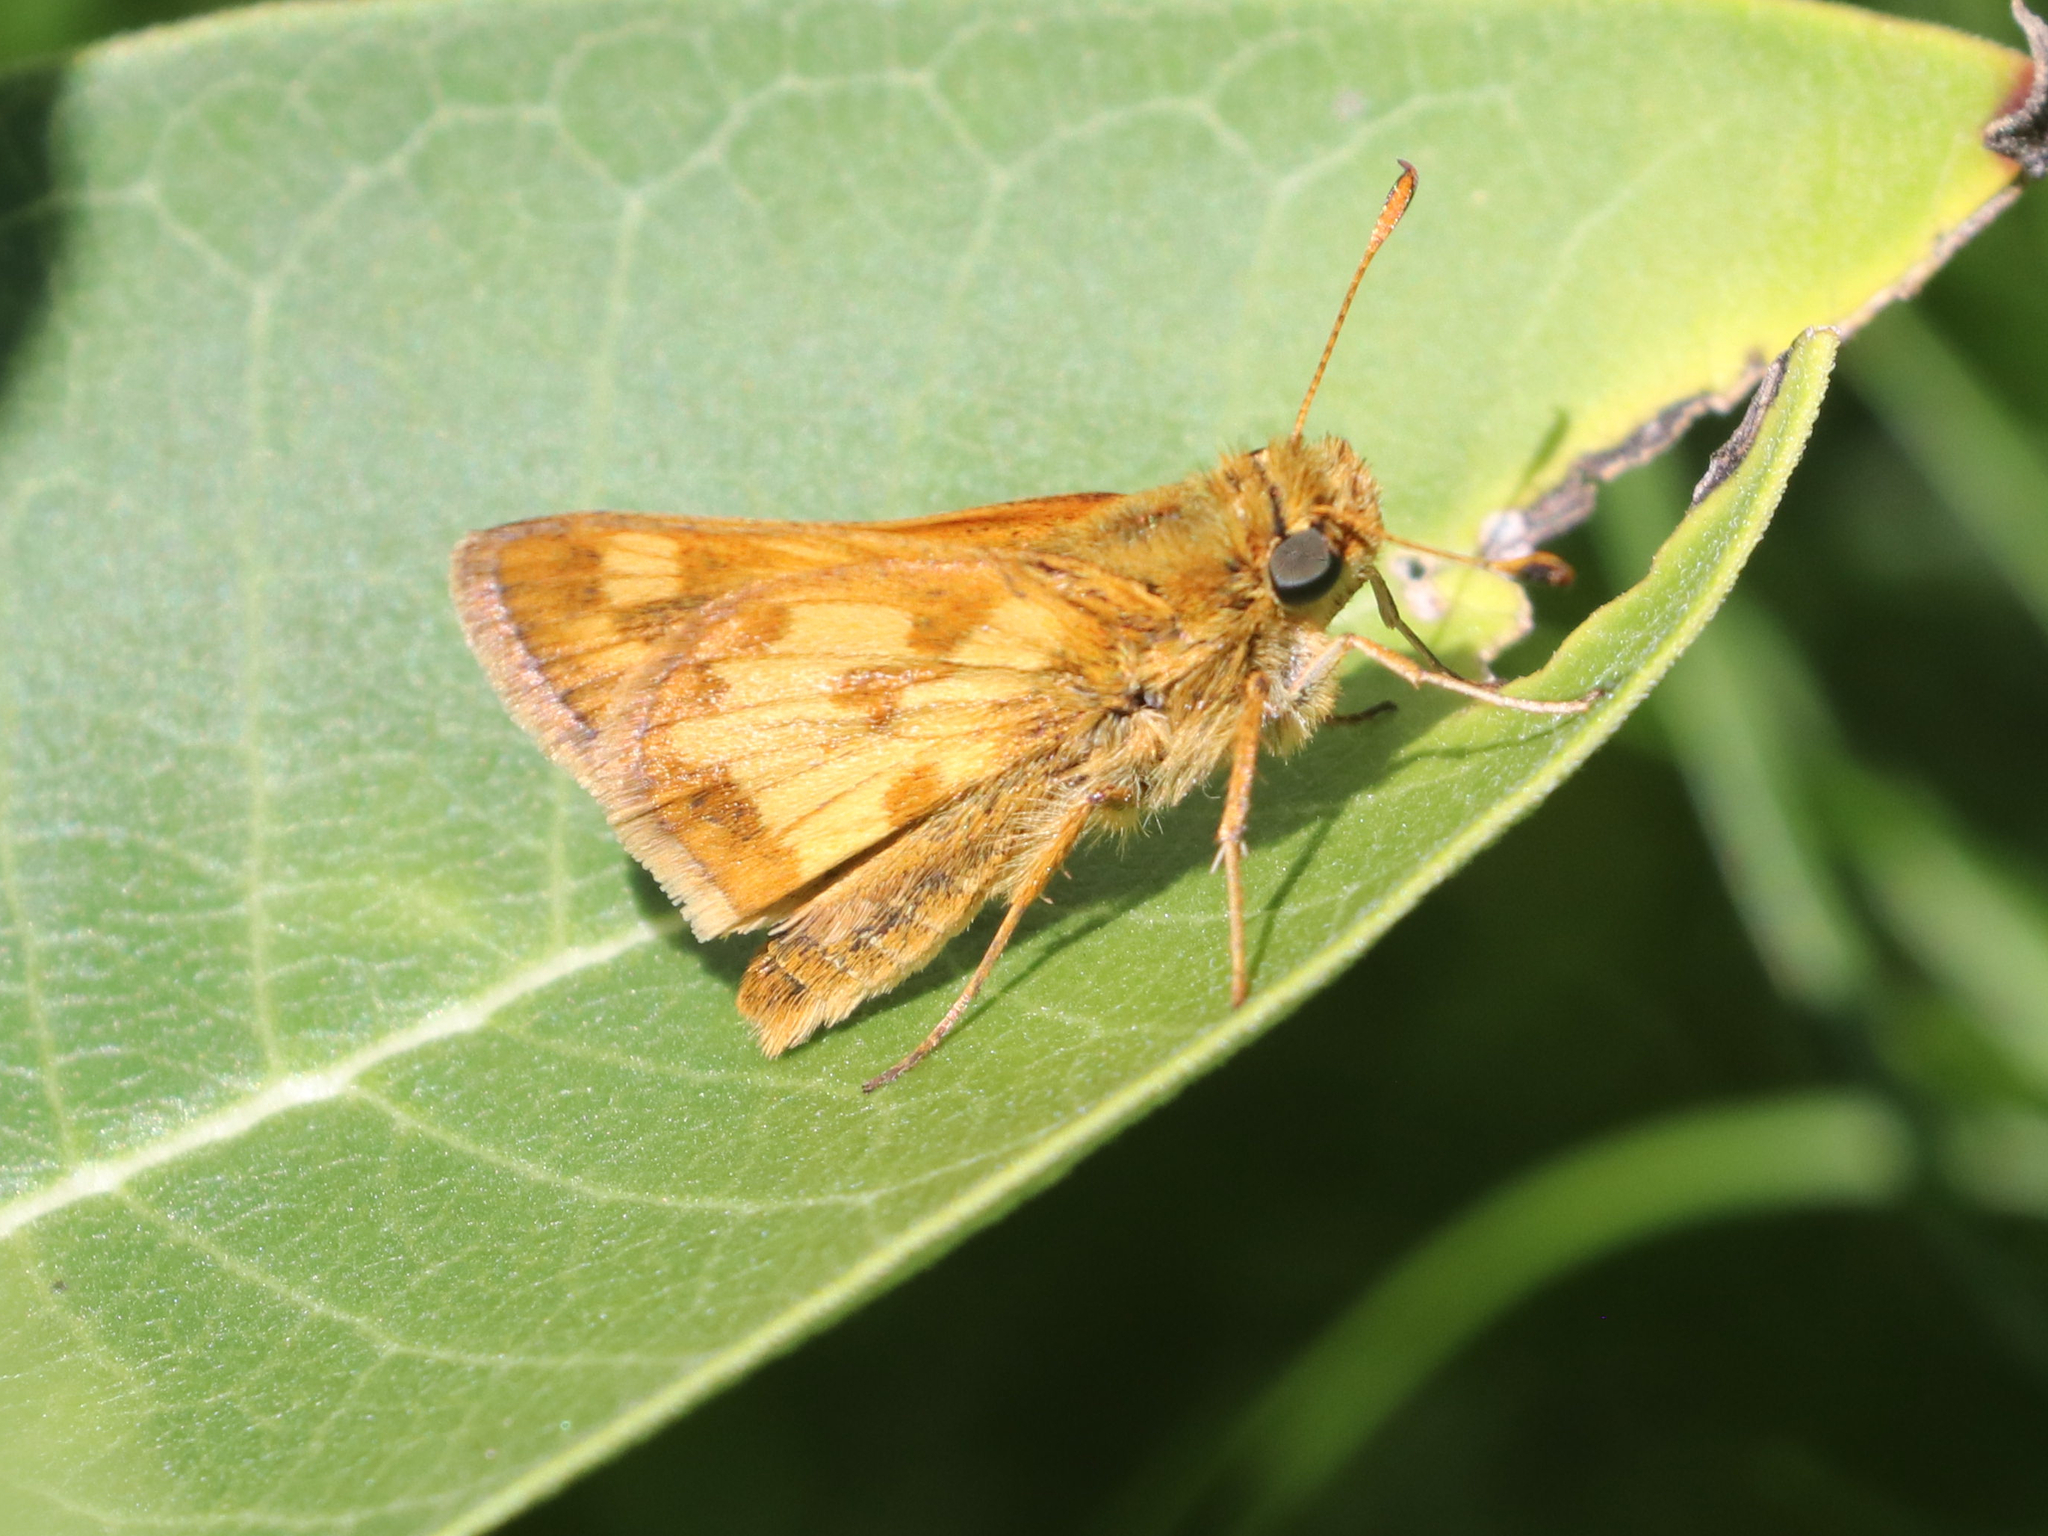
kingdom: Animalia
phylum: Arthropoda
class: Insecta
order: Lepidoptera
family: Hesperiidae
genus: Polites
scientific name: Polites coras
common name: Peck's skipper
